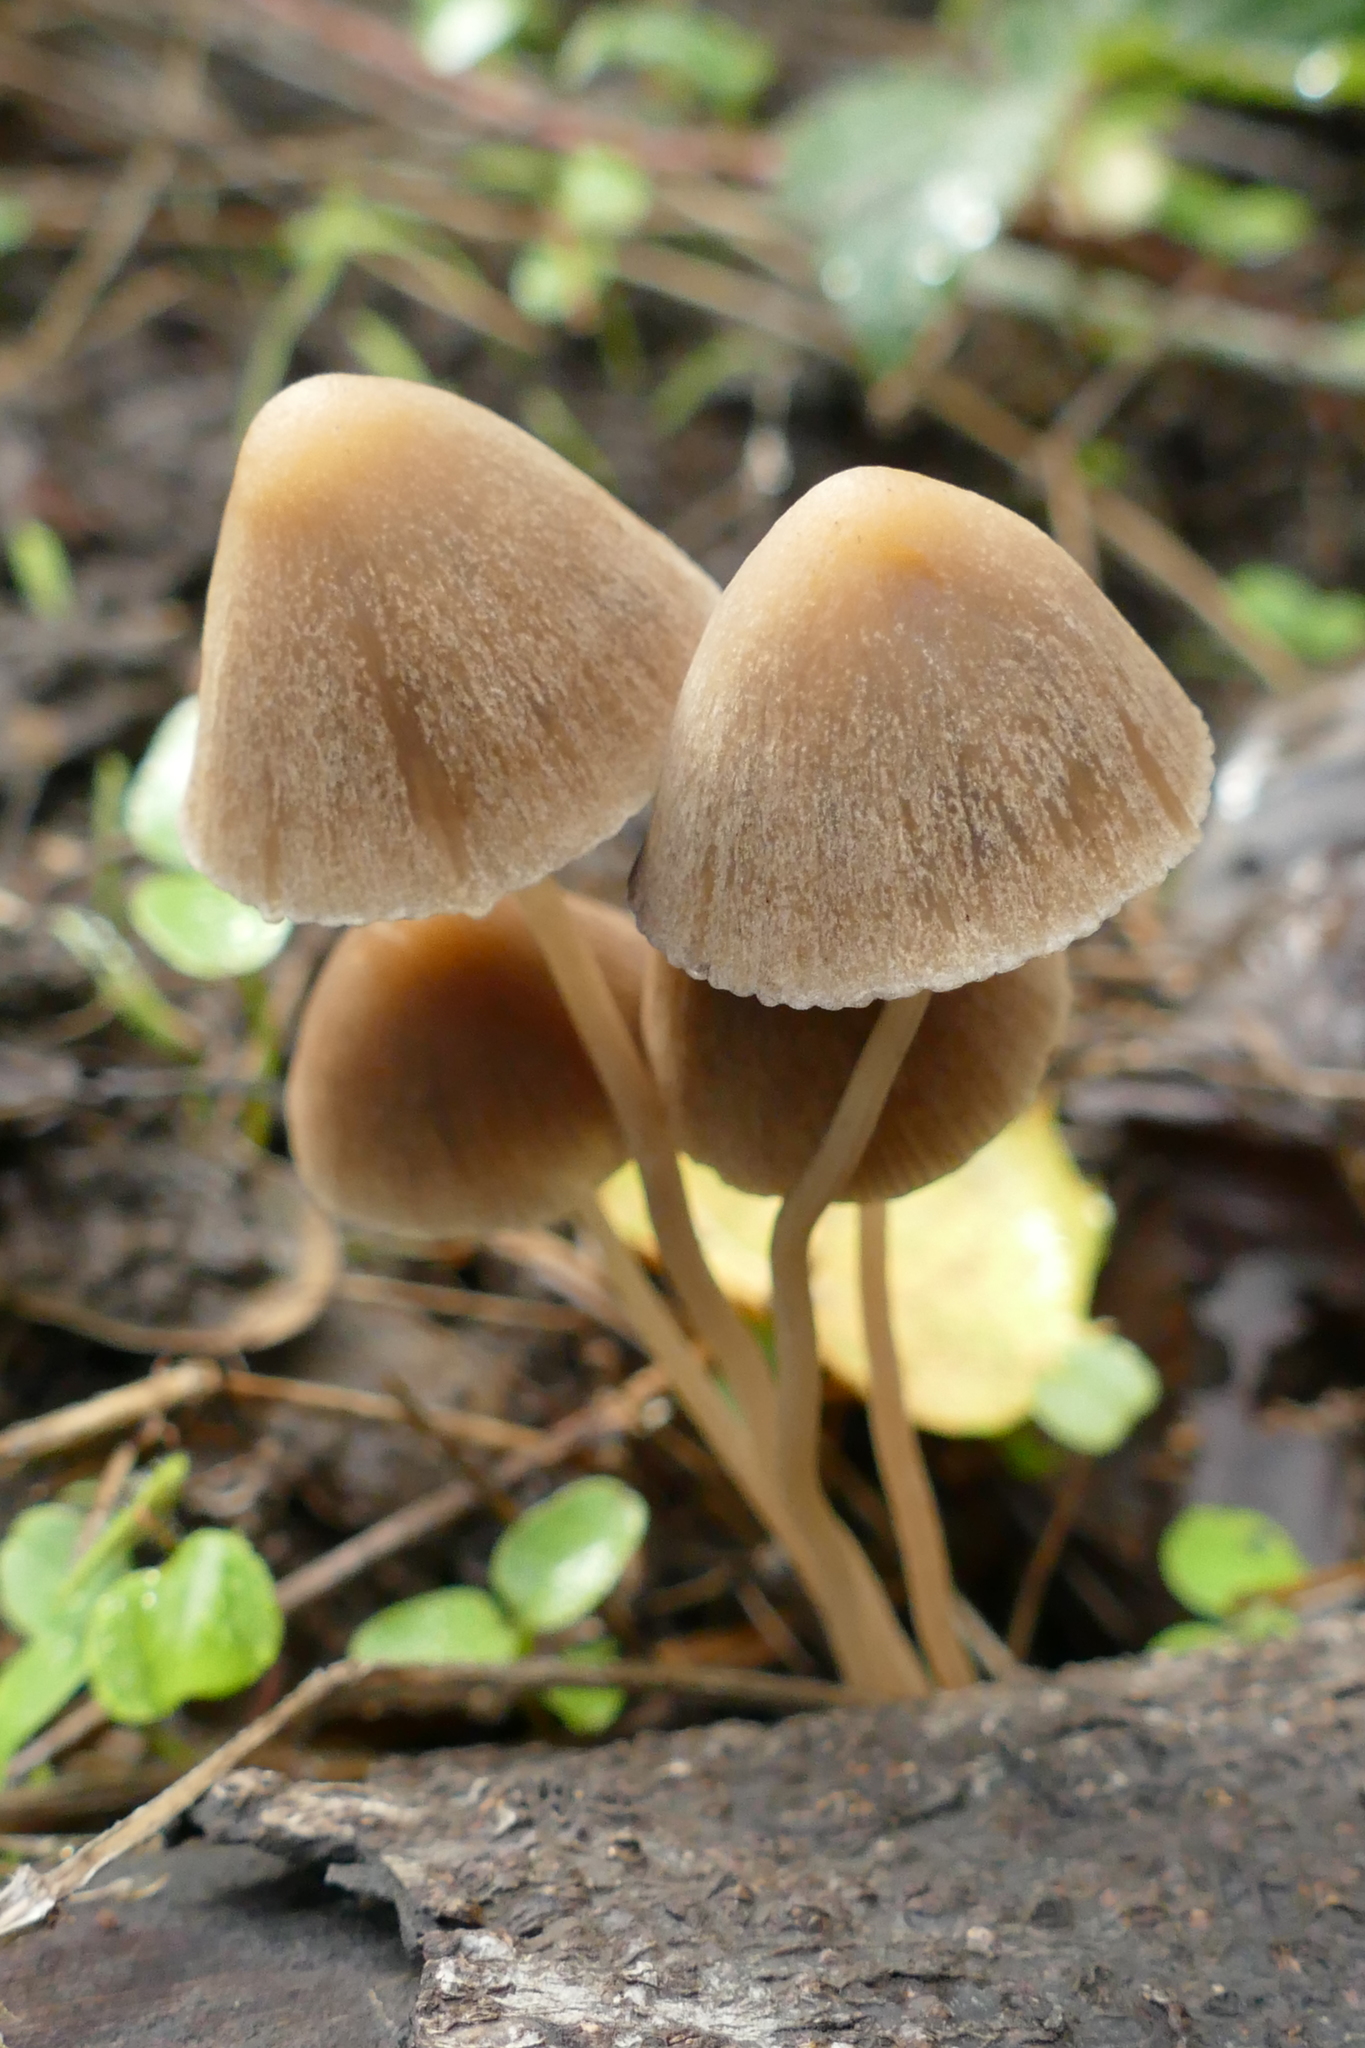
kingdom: Fungi
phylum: Basidiomycota
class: Agaricomycetes
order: Agaricales
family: Psathyrellaceae
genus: Psathyrella
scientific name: Psathyrella corrugis
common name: Red edge brittlestem
